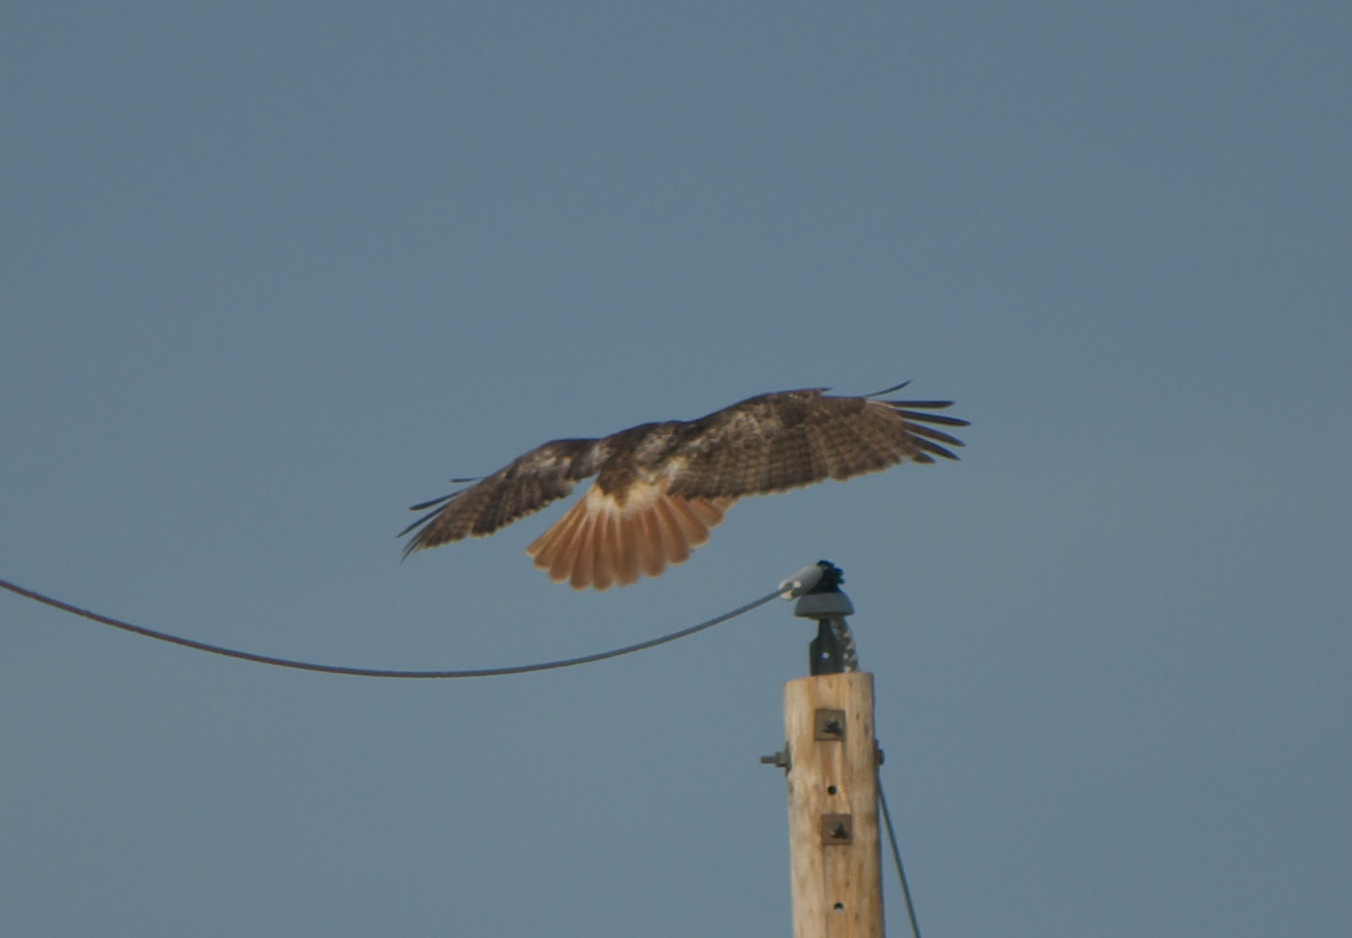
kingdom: Animalia
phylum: Chordata
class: Aves
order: Accipitriformes
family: Accipitridae
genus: Buteo
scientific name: Buteo jamaicensis
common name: Red-tailed hawk
